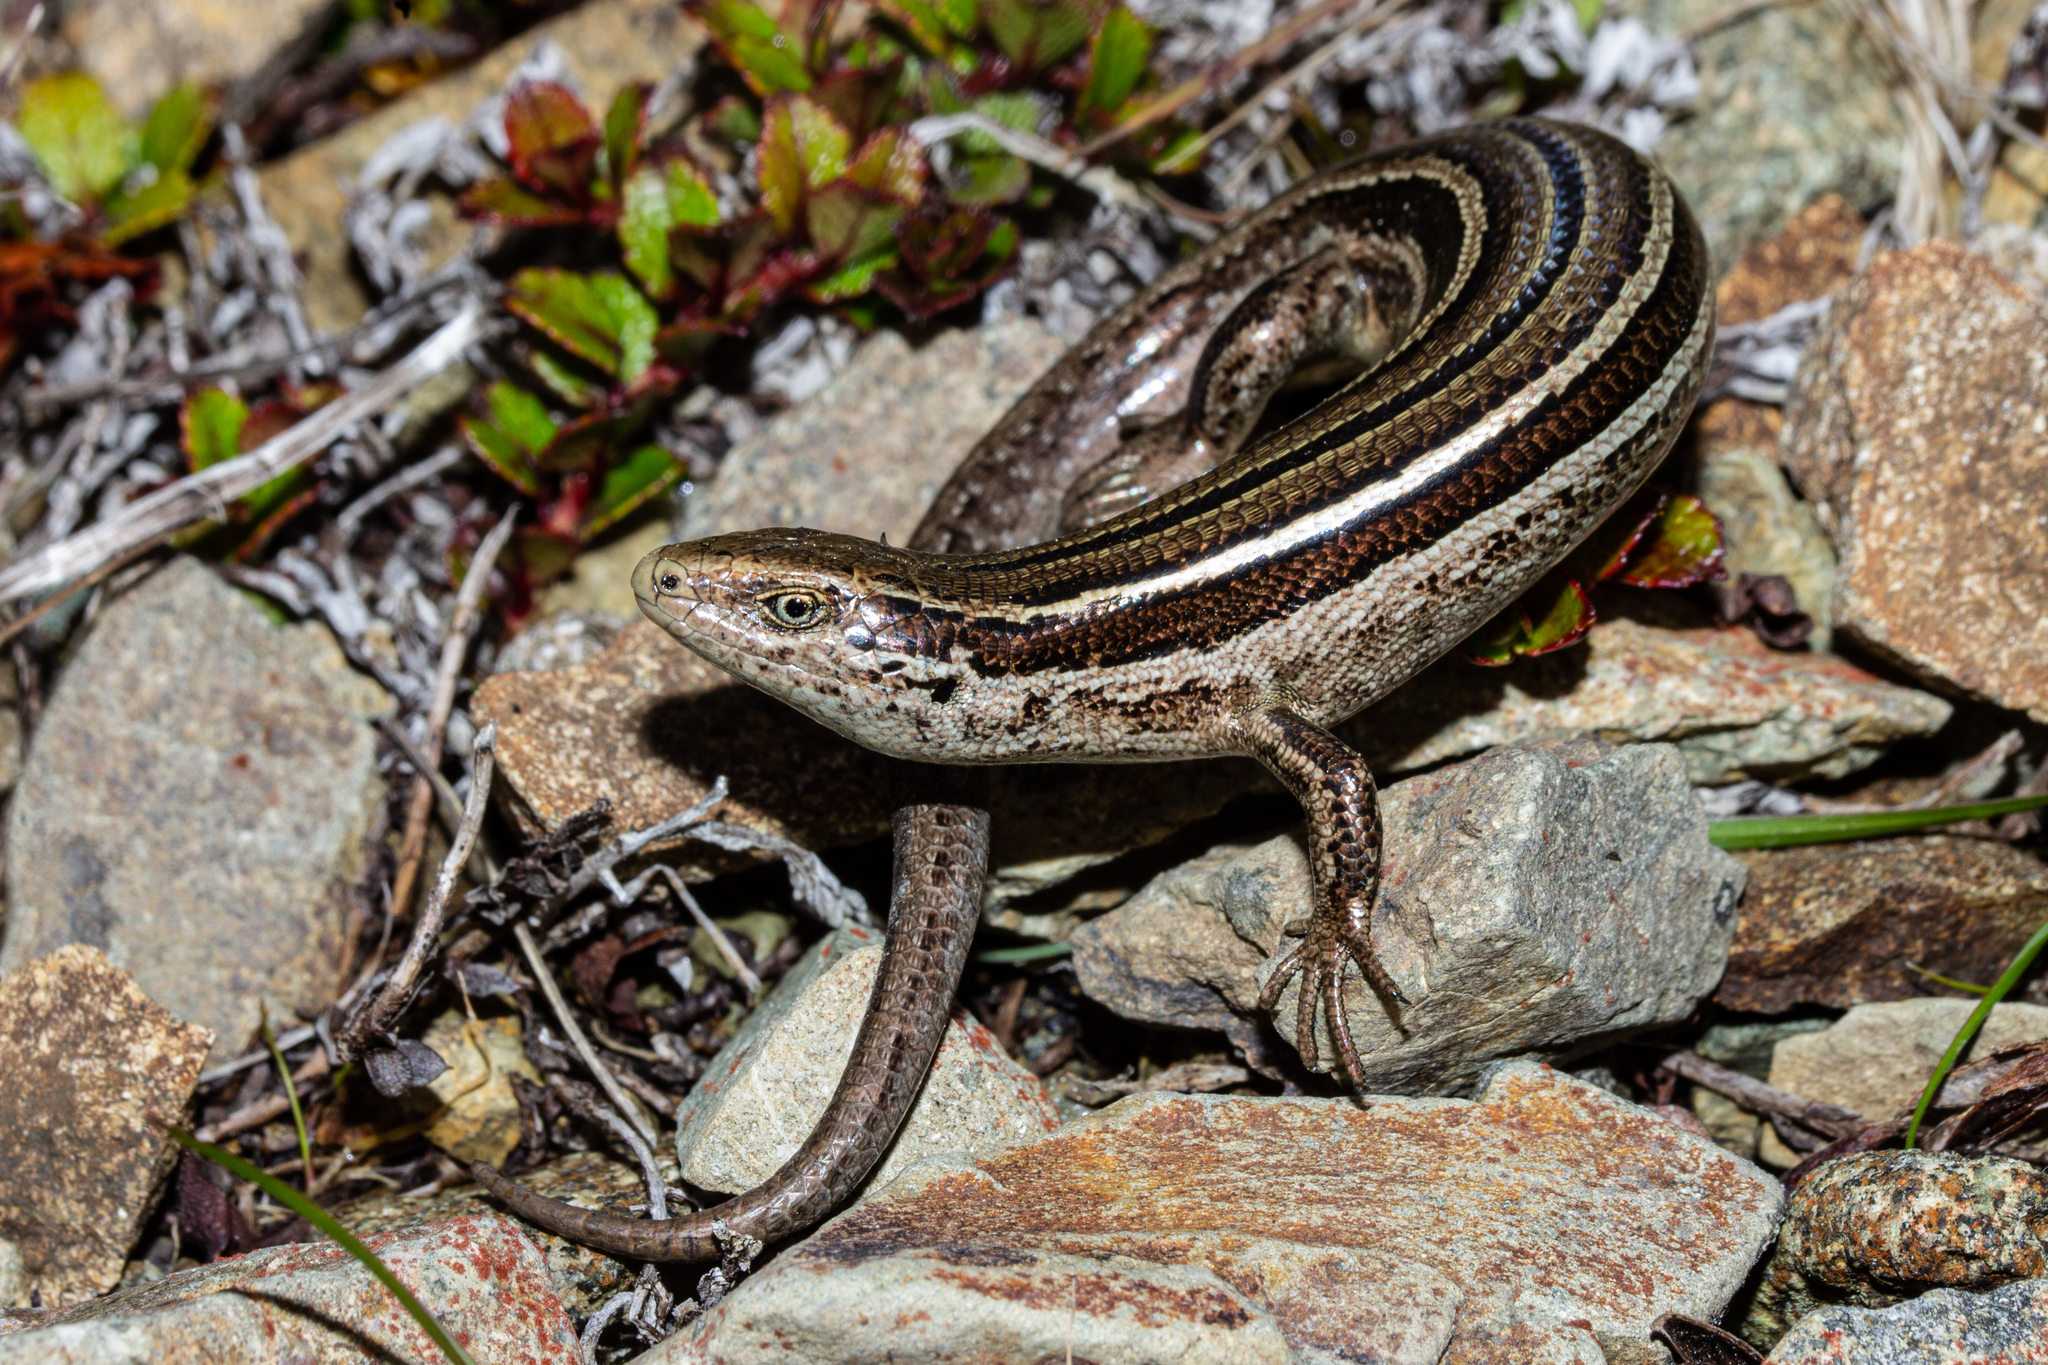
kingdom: Animalia
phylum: Chordata
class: Squamata
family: Scincidae
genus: Oligosoma
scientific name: Oligosoma repens
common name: Eyres skink
